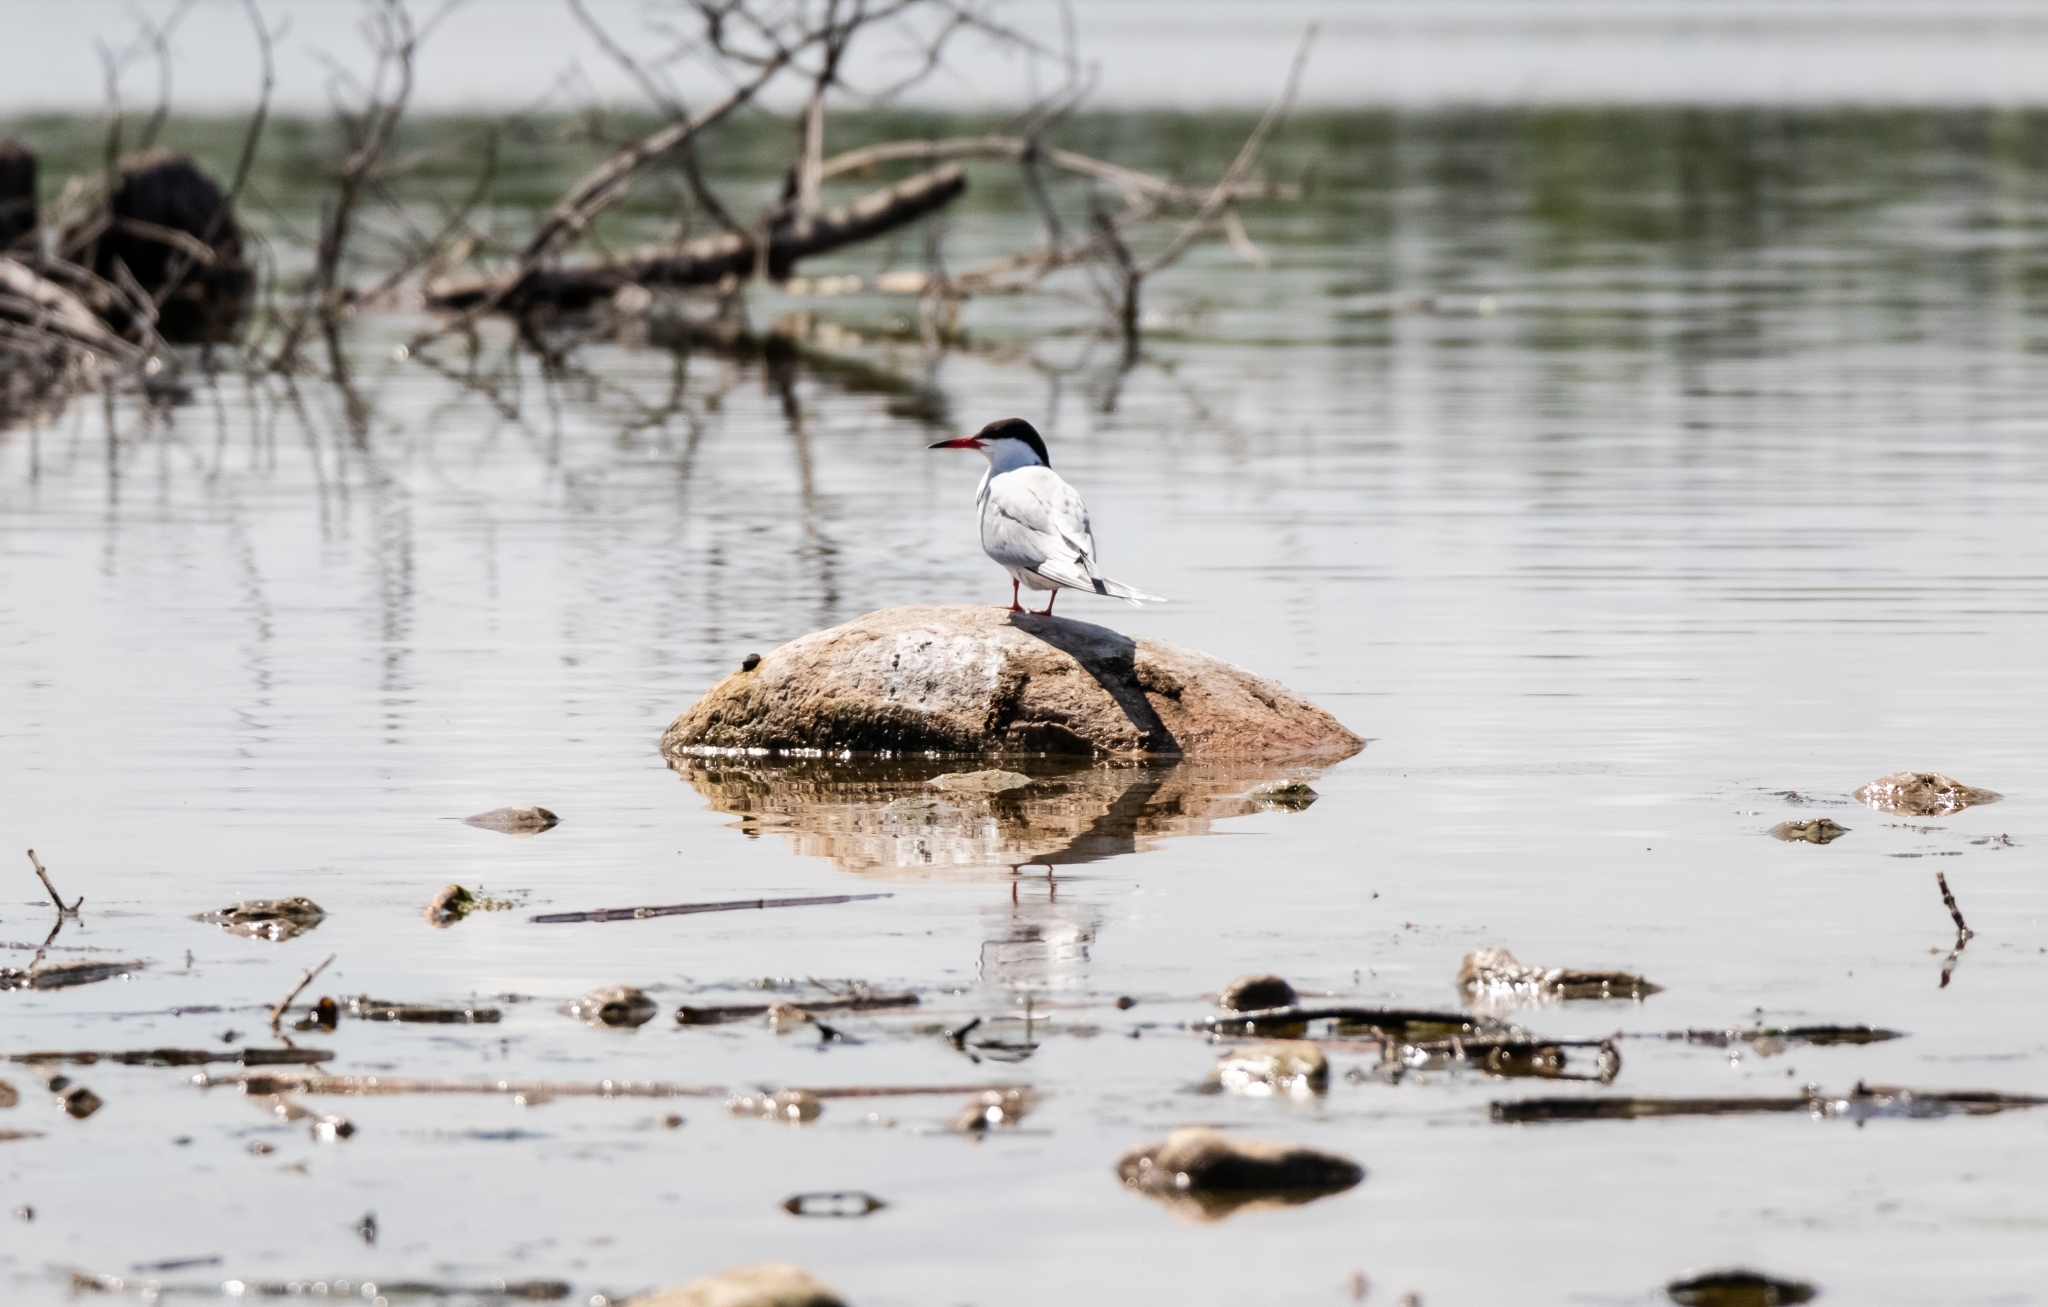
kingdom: Animalia
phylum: Chordata
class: Aves
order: Charadriiformes
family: Laridae
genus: Sterna
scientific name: Sterna hirundo
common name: Common tern
